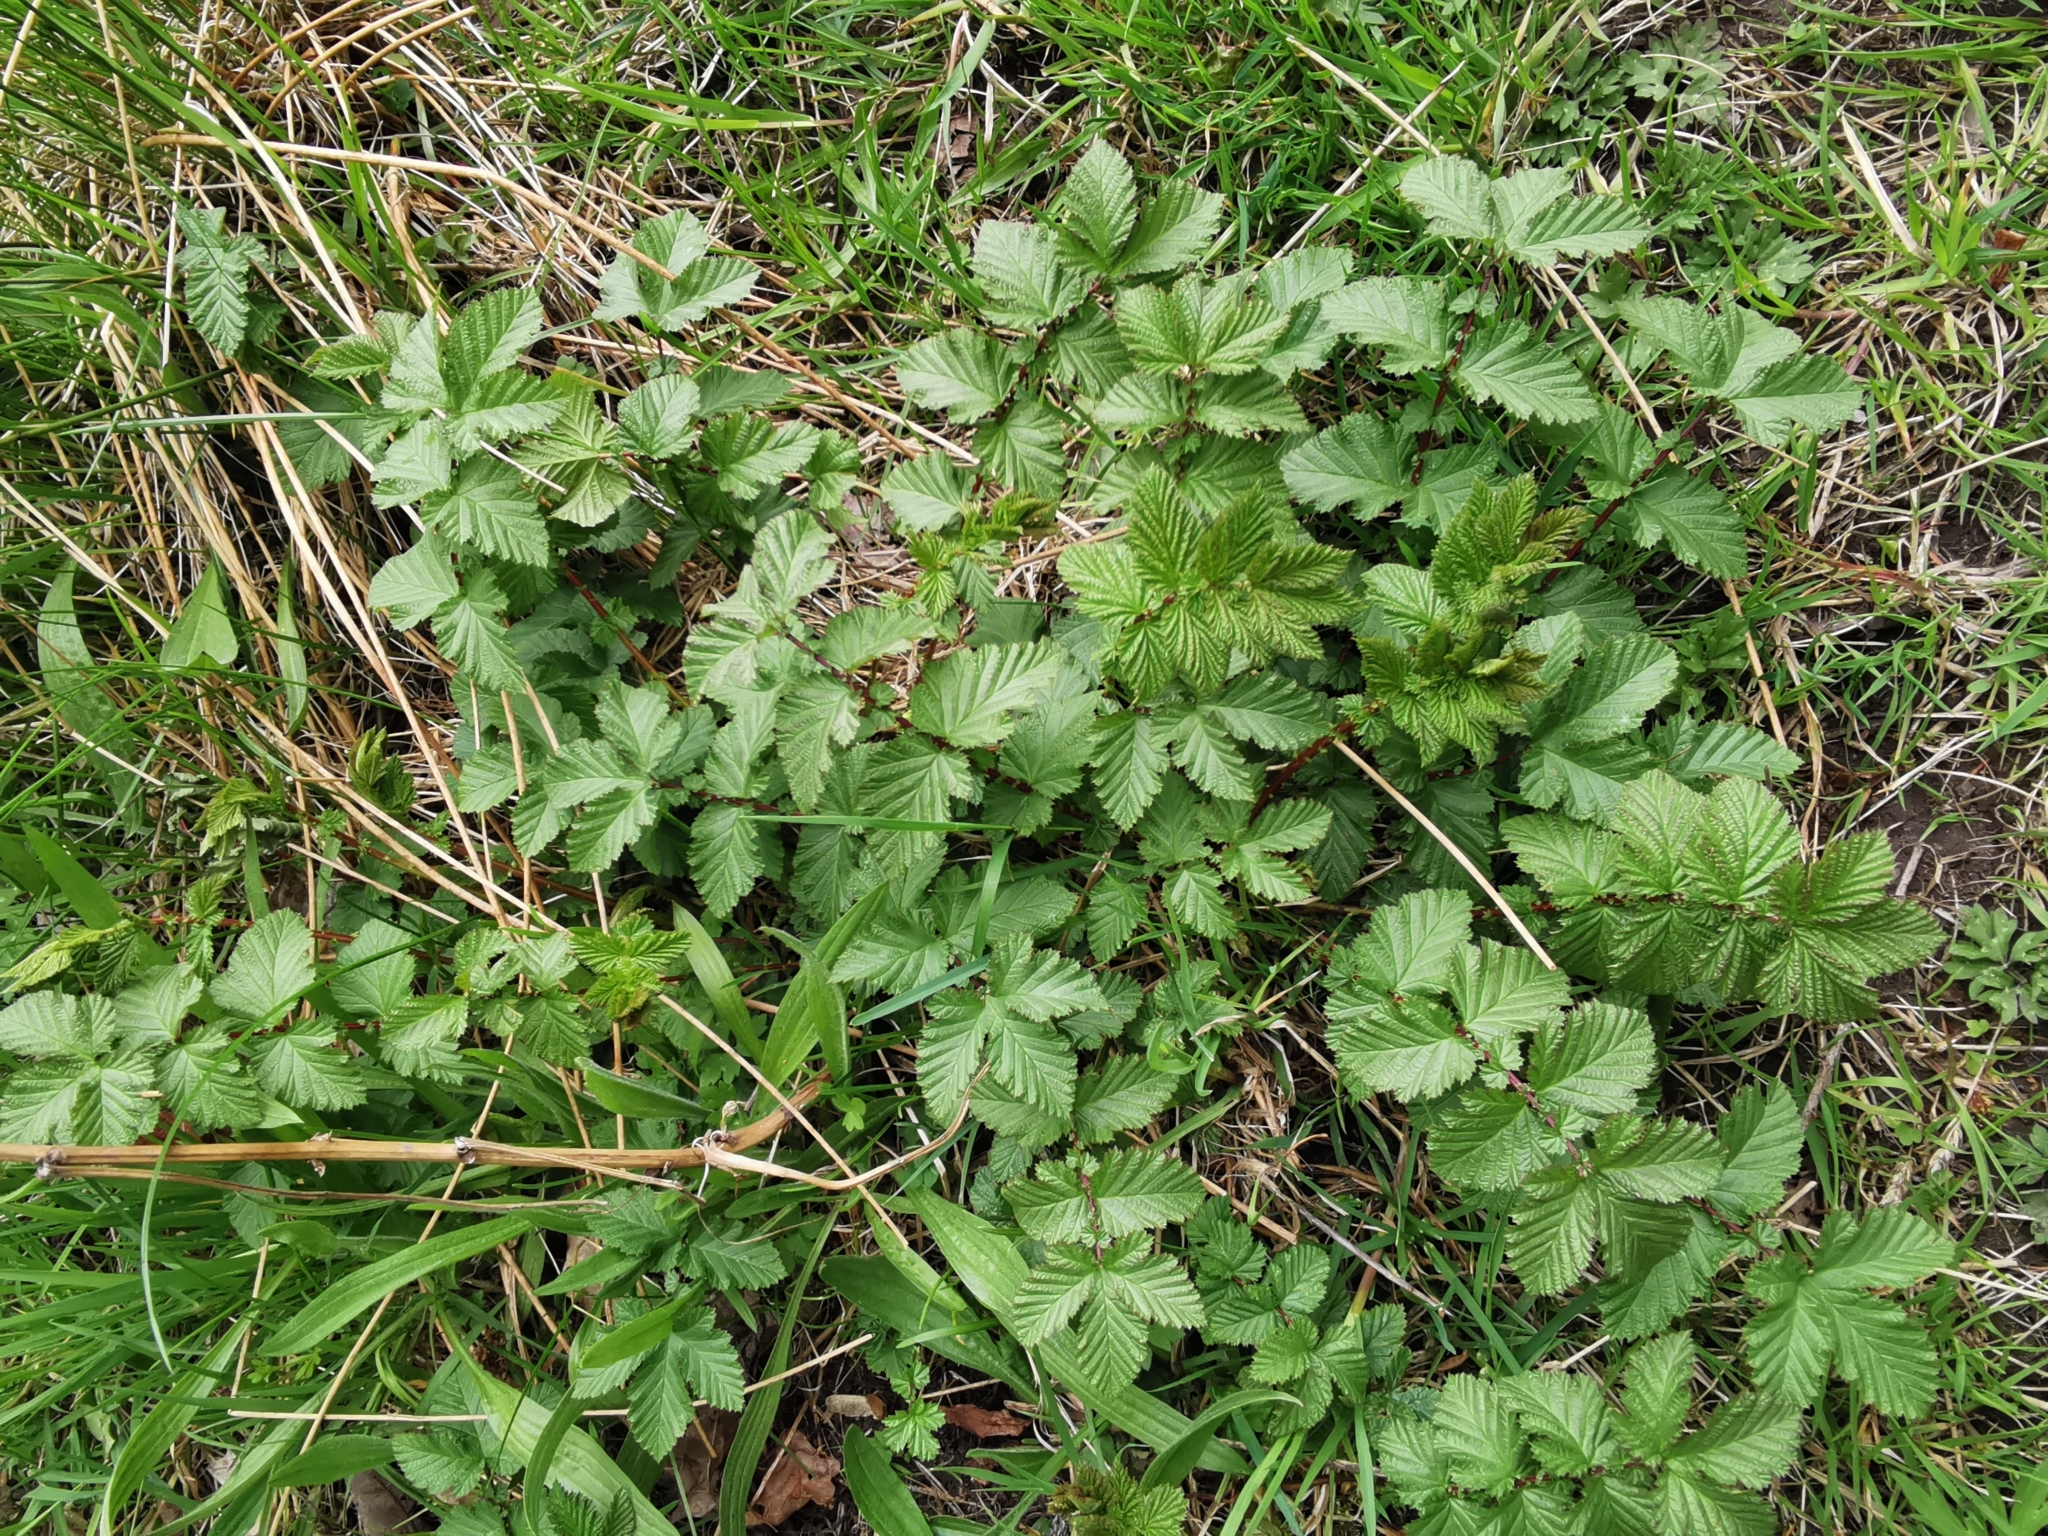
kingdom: Plantae
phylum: Tracheophyta
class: Magnoliopsida
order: Rosales
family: Rosaceae
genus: Filipendula
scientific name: Filipendula ulmaria
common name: Meadowsweet
